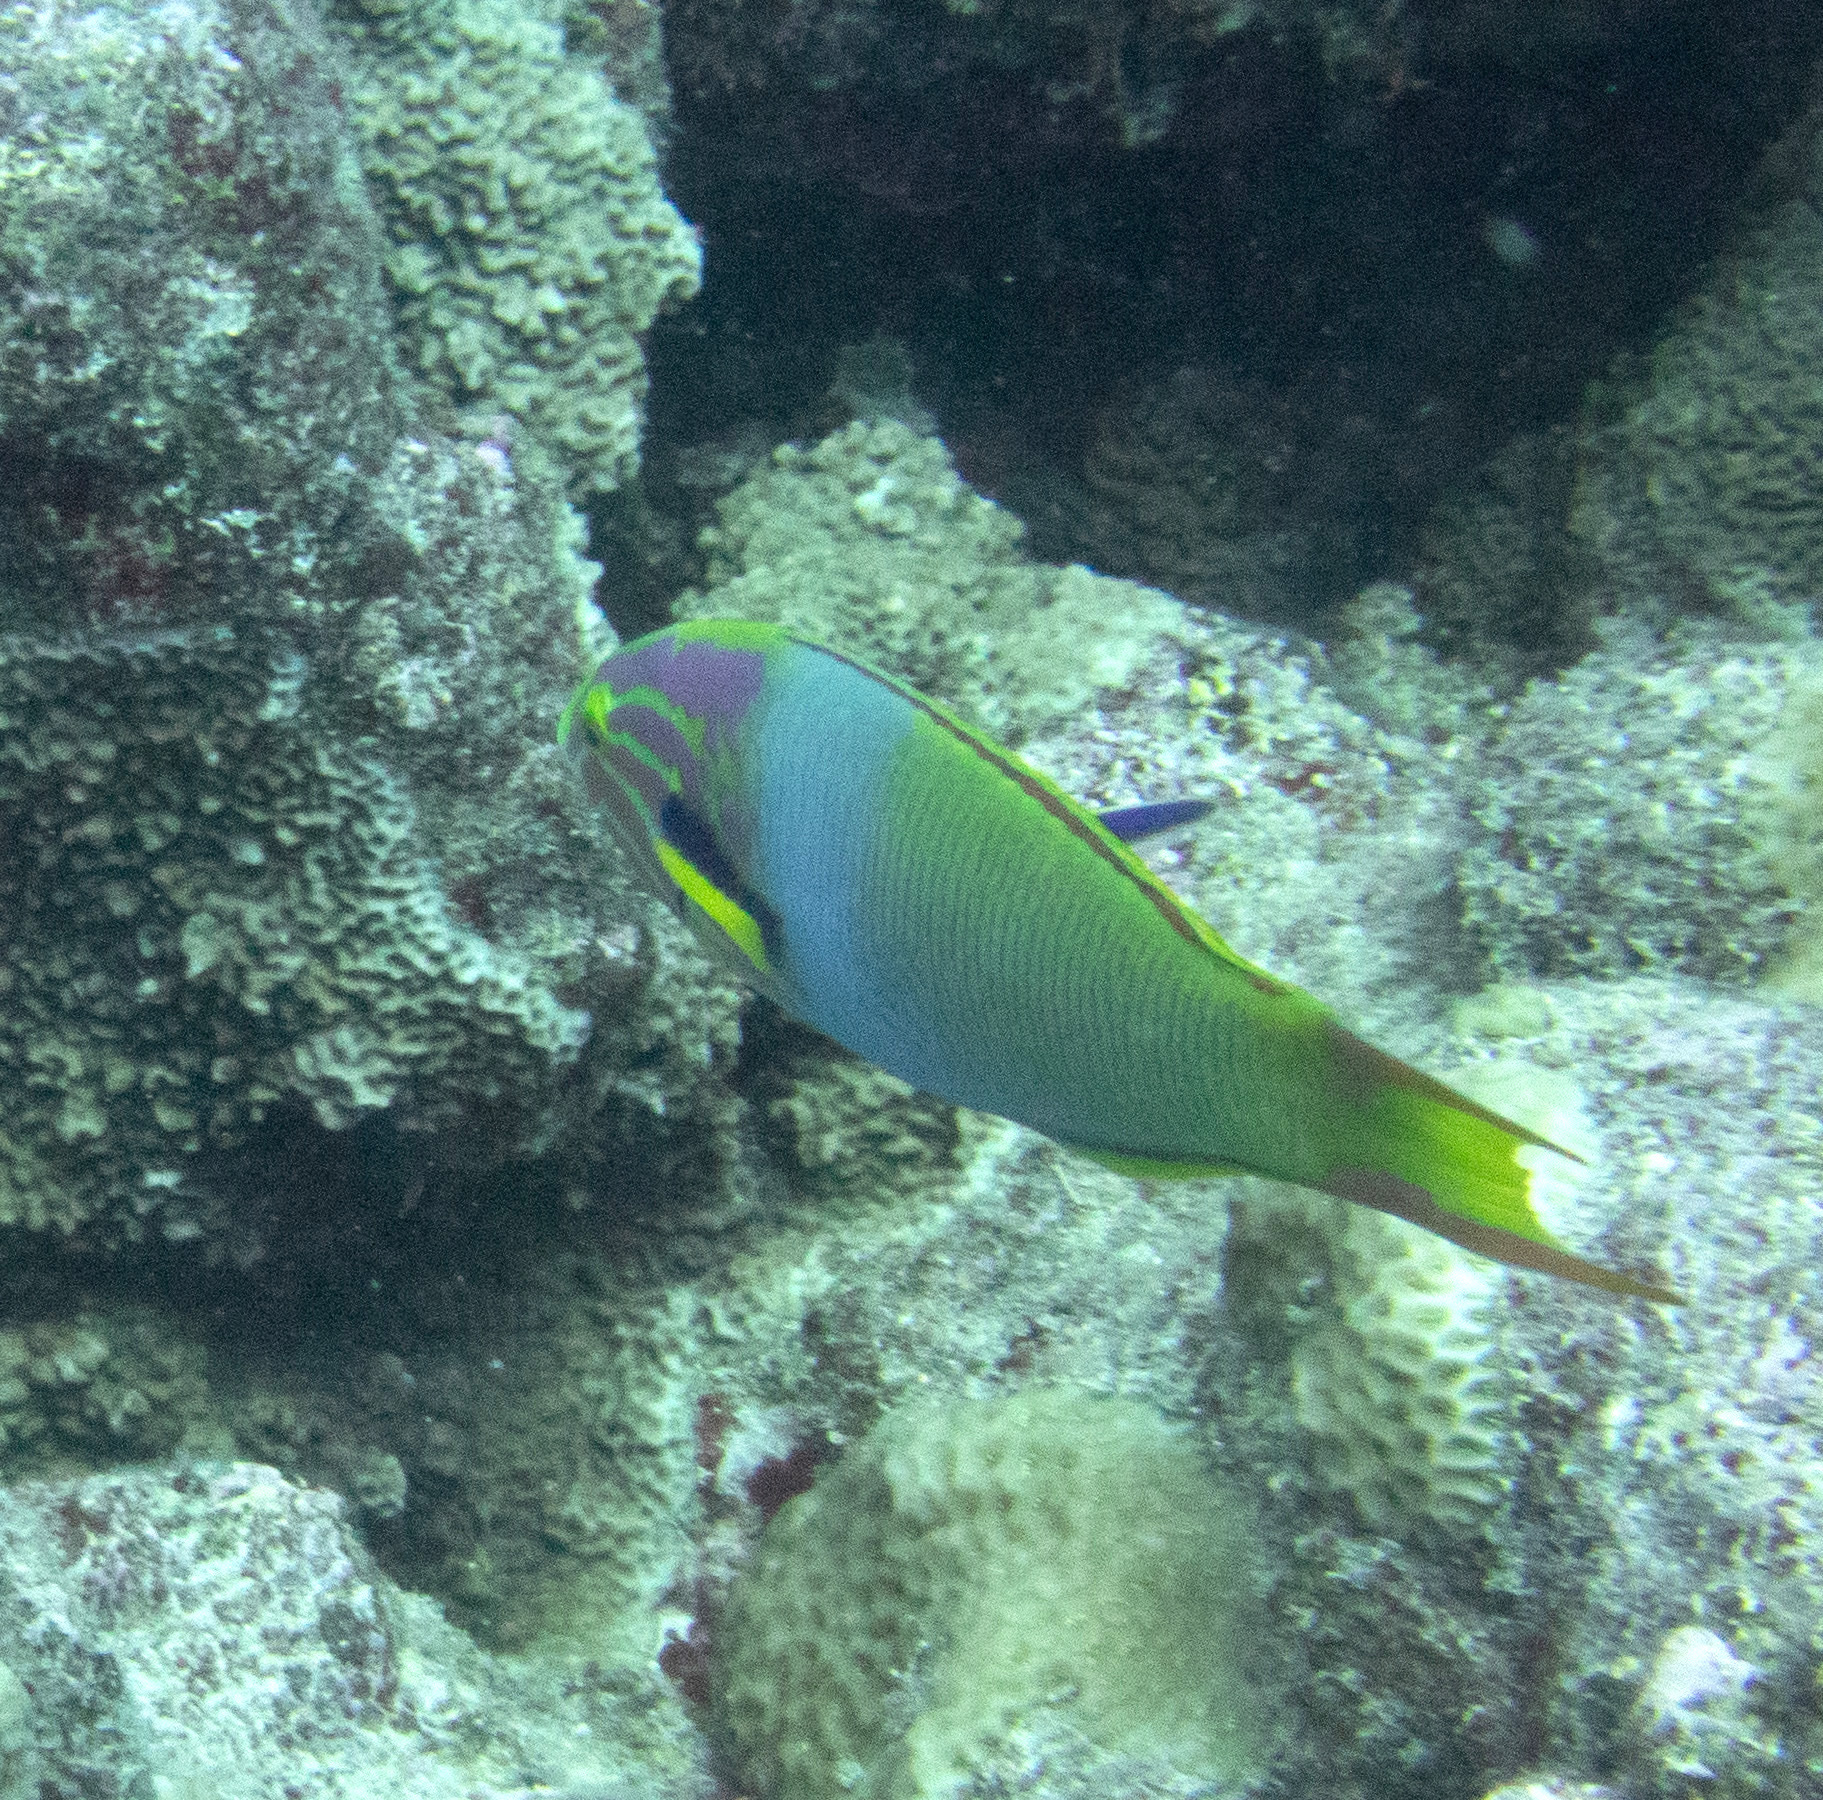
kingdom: Animalia
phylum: Chordata
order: Perciformes
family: Labridae
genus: Thalassoma
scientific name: Thalassoma lutescens
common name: Green moon wrasse
